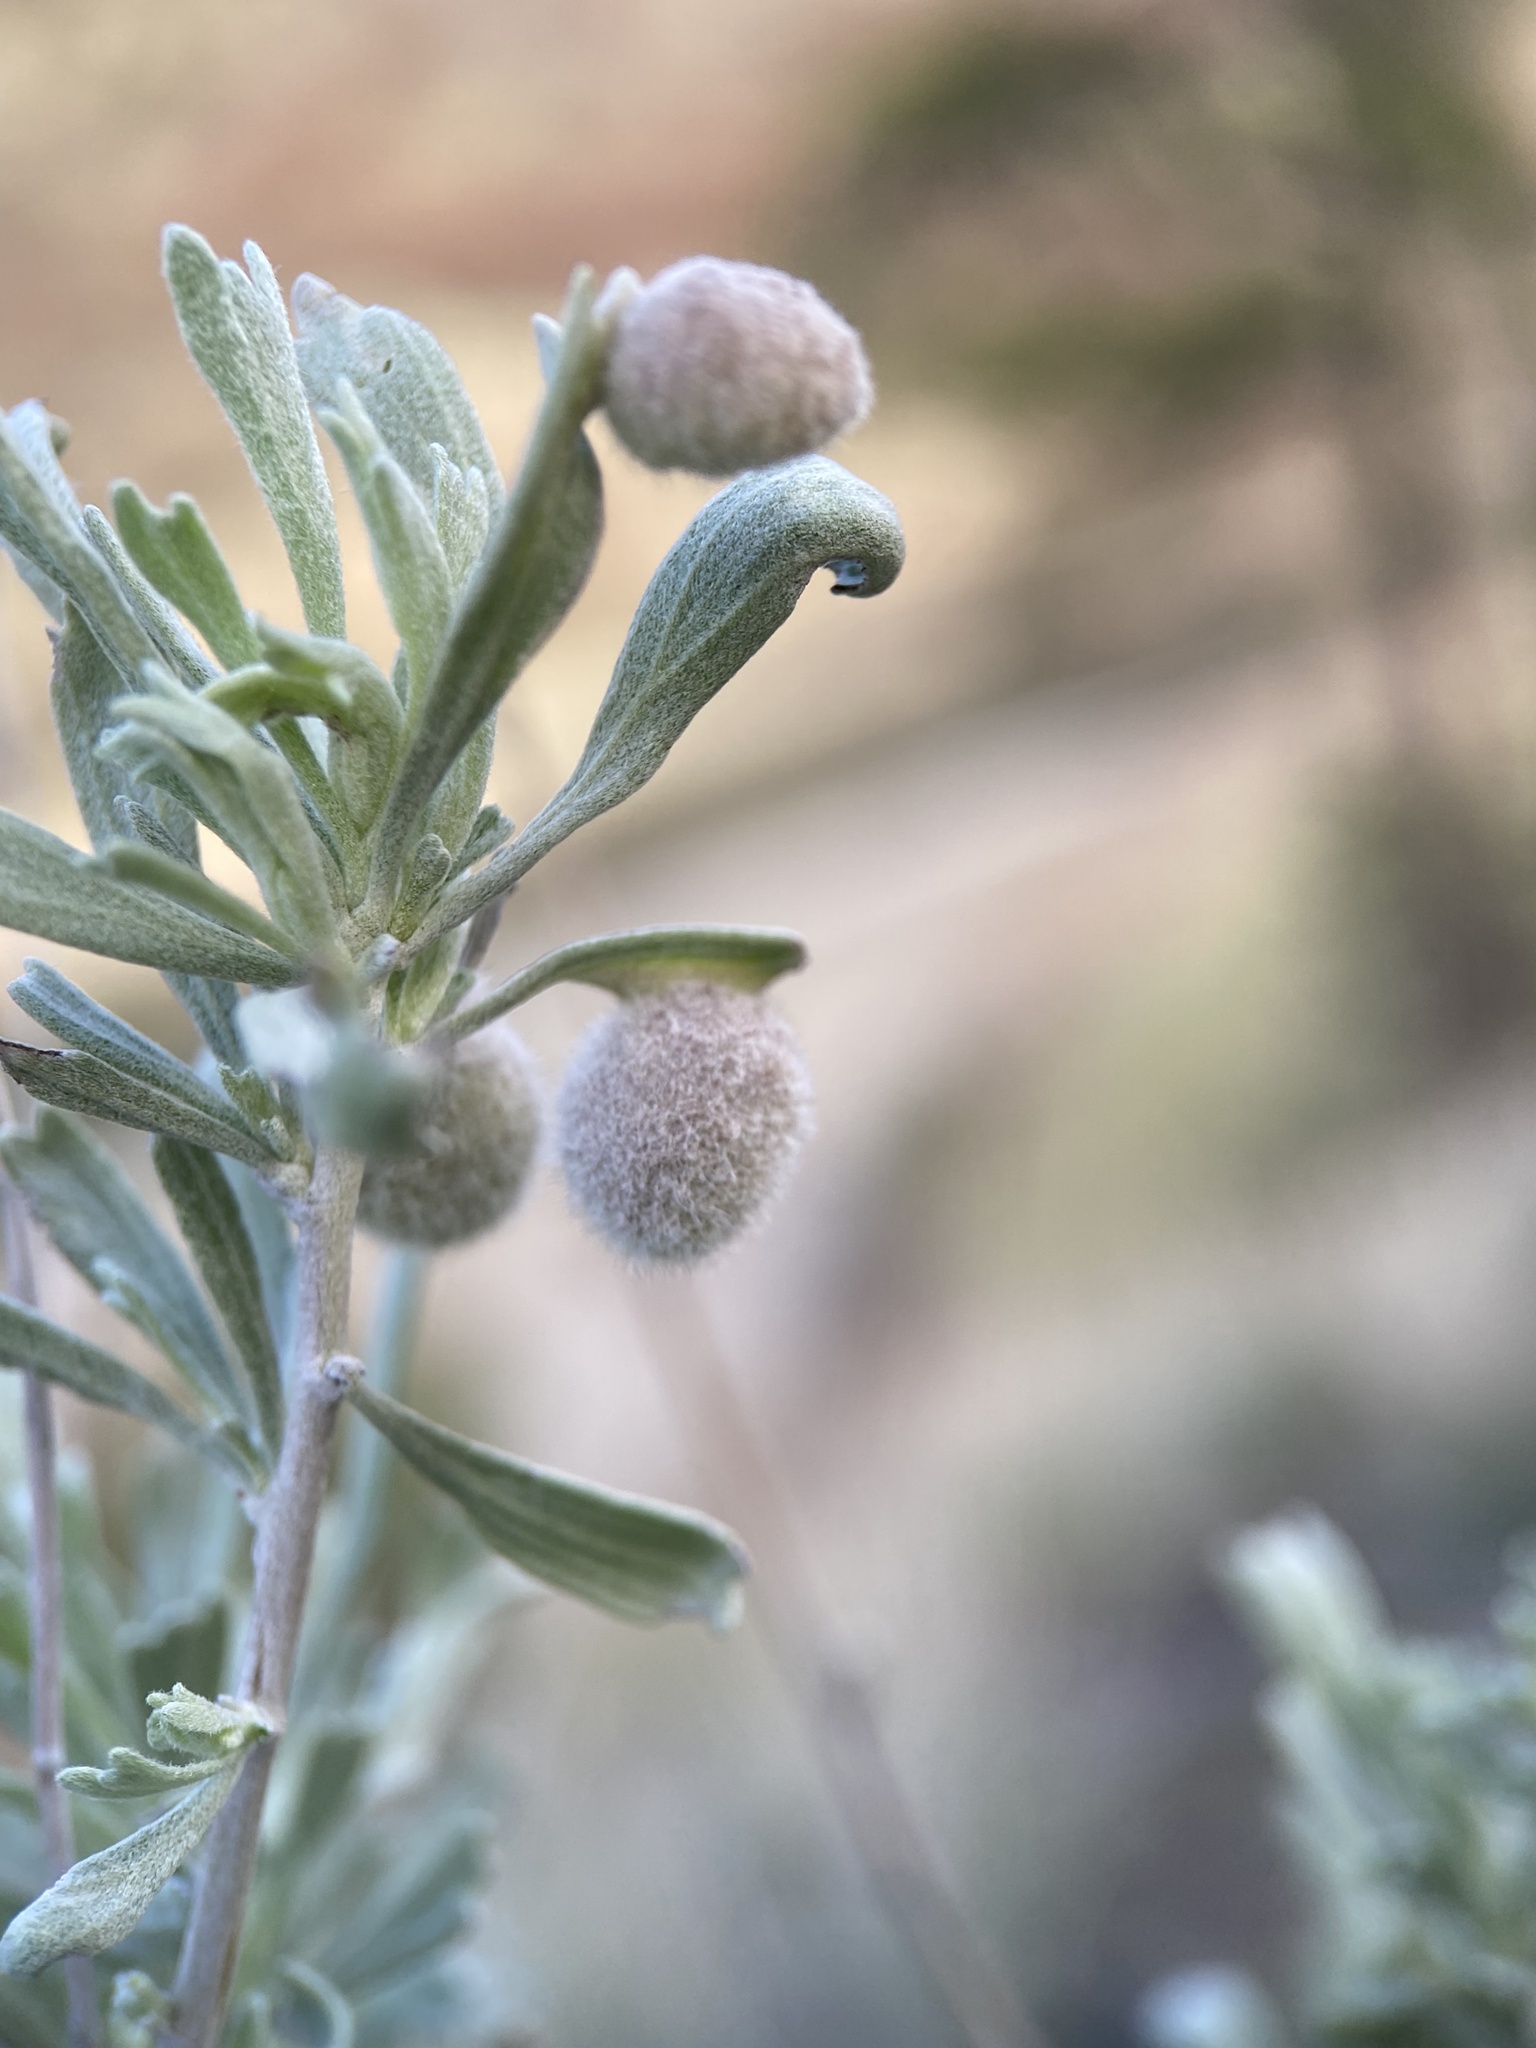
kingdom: Animalia
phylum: Arthropoda
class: Insecta
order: Diptera
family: Cecidomyiidae
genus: Rhopalomyia
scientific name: Rhopalomyia hirtipomum
